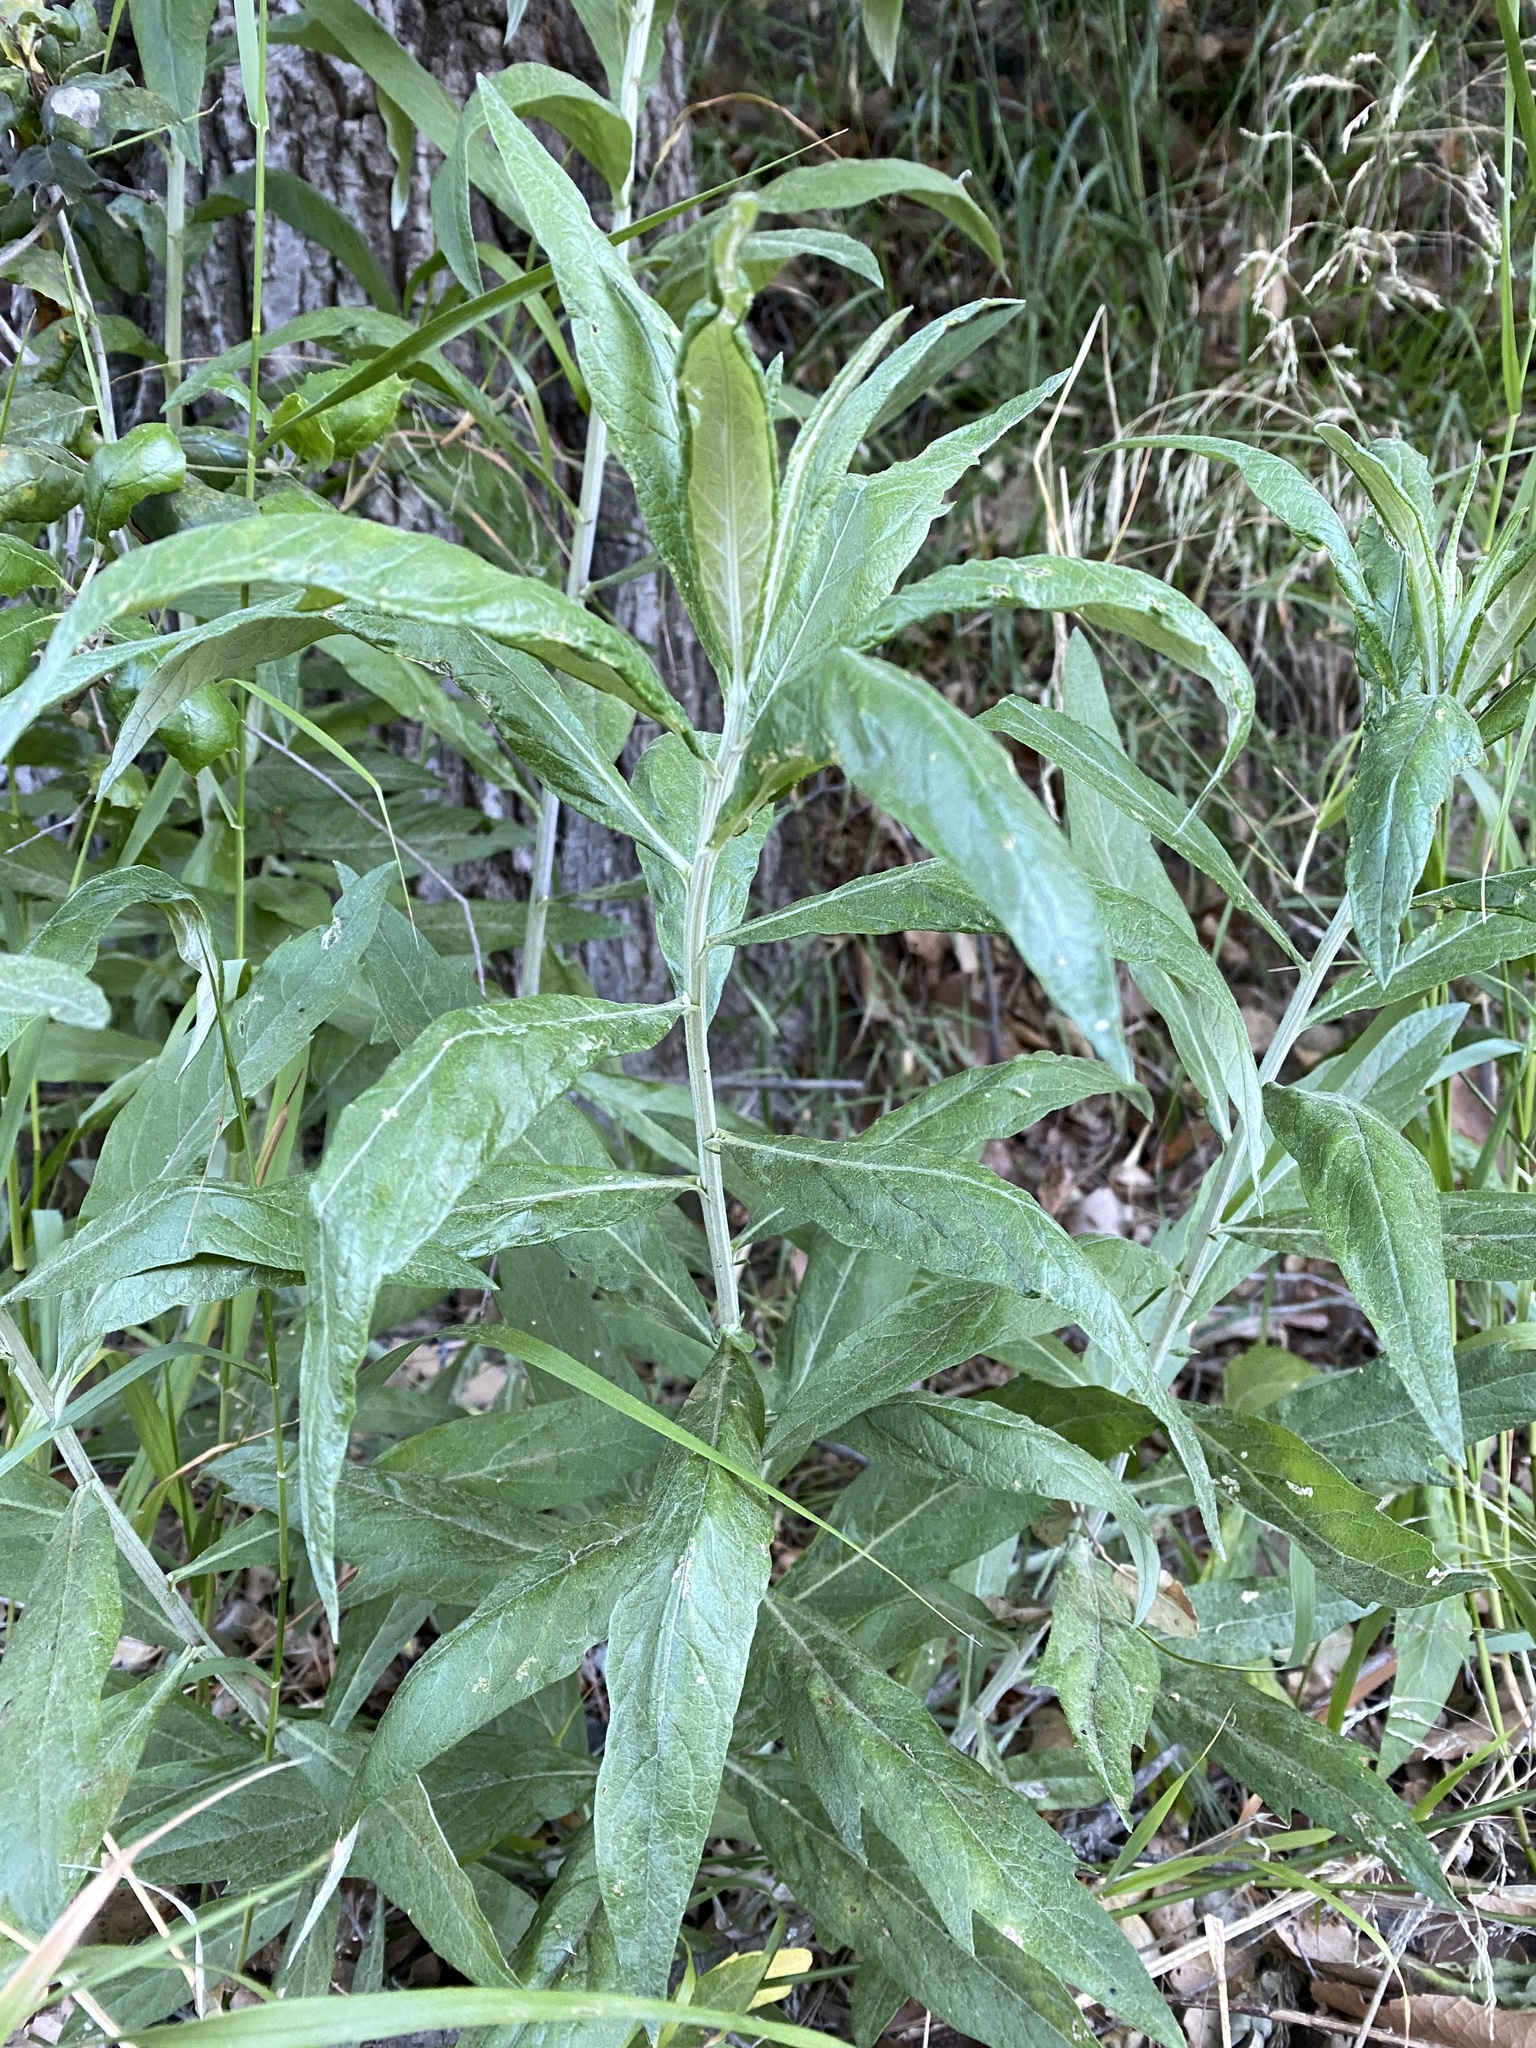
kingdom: Plantae
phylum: Tracheophyta
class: Magnoliopsida
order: Asterales
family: Asteraceae
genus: Artemisia
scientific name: Artemisia douglasiana
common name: Northwest mugwort
